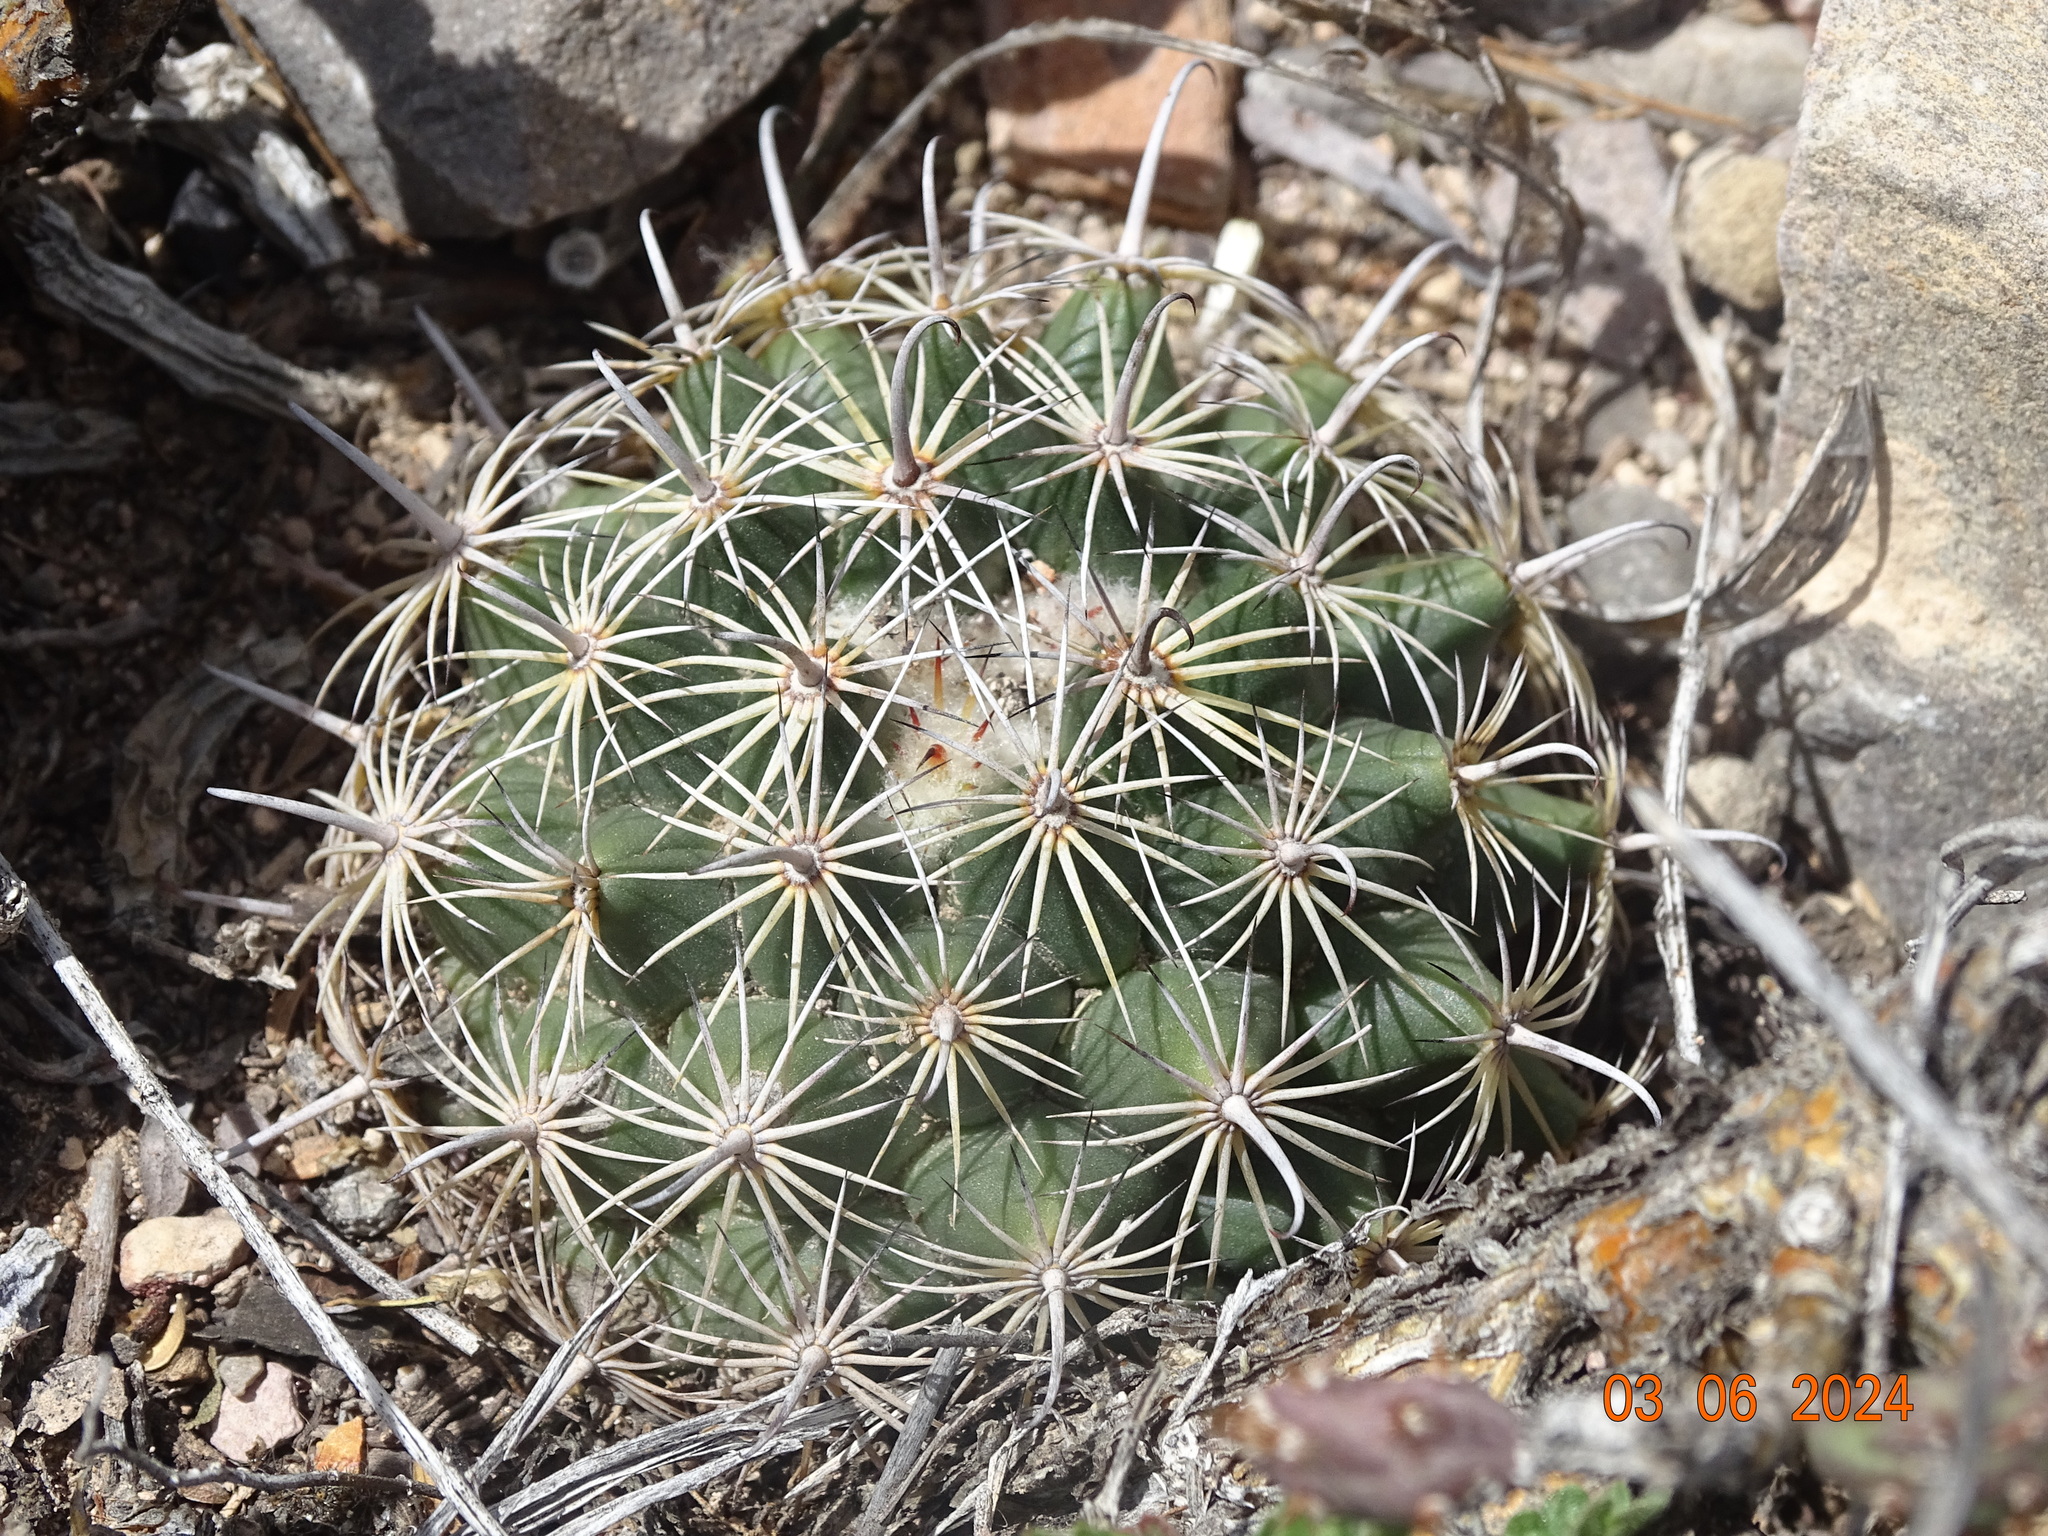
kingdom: Plantae
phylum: Tracheophyta
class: Magnoliopsida
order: Caryophyllales
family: Cactaceae
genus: Coryphantha
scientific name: Coryphantha delicata
